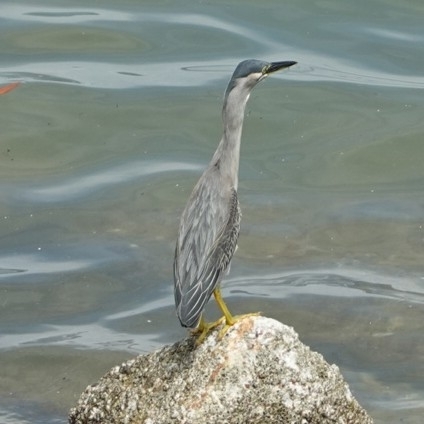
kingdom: Animalia
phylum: Chordata
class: Aves
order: Pelecaniformes
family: Ardeidae
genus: Butorides
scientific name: Butorides striata
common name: Striated heron
